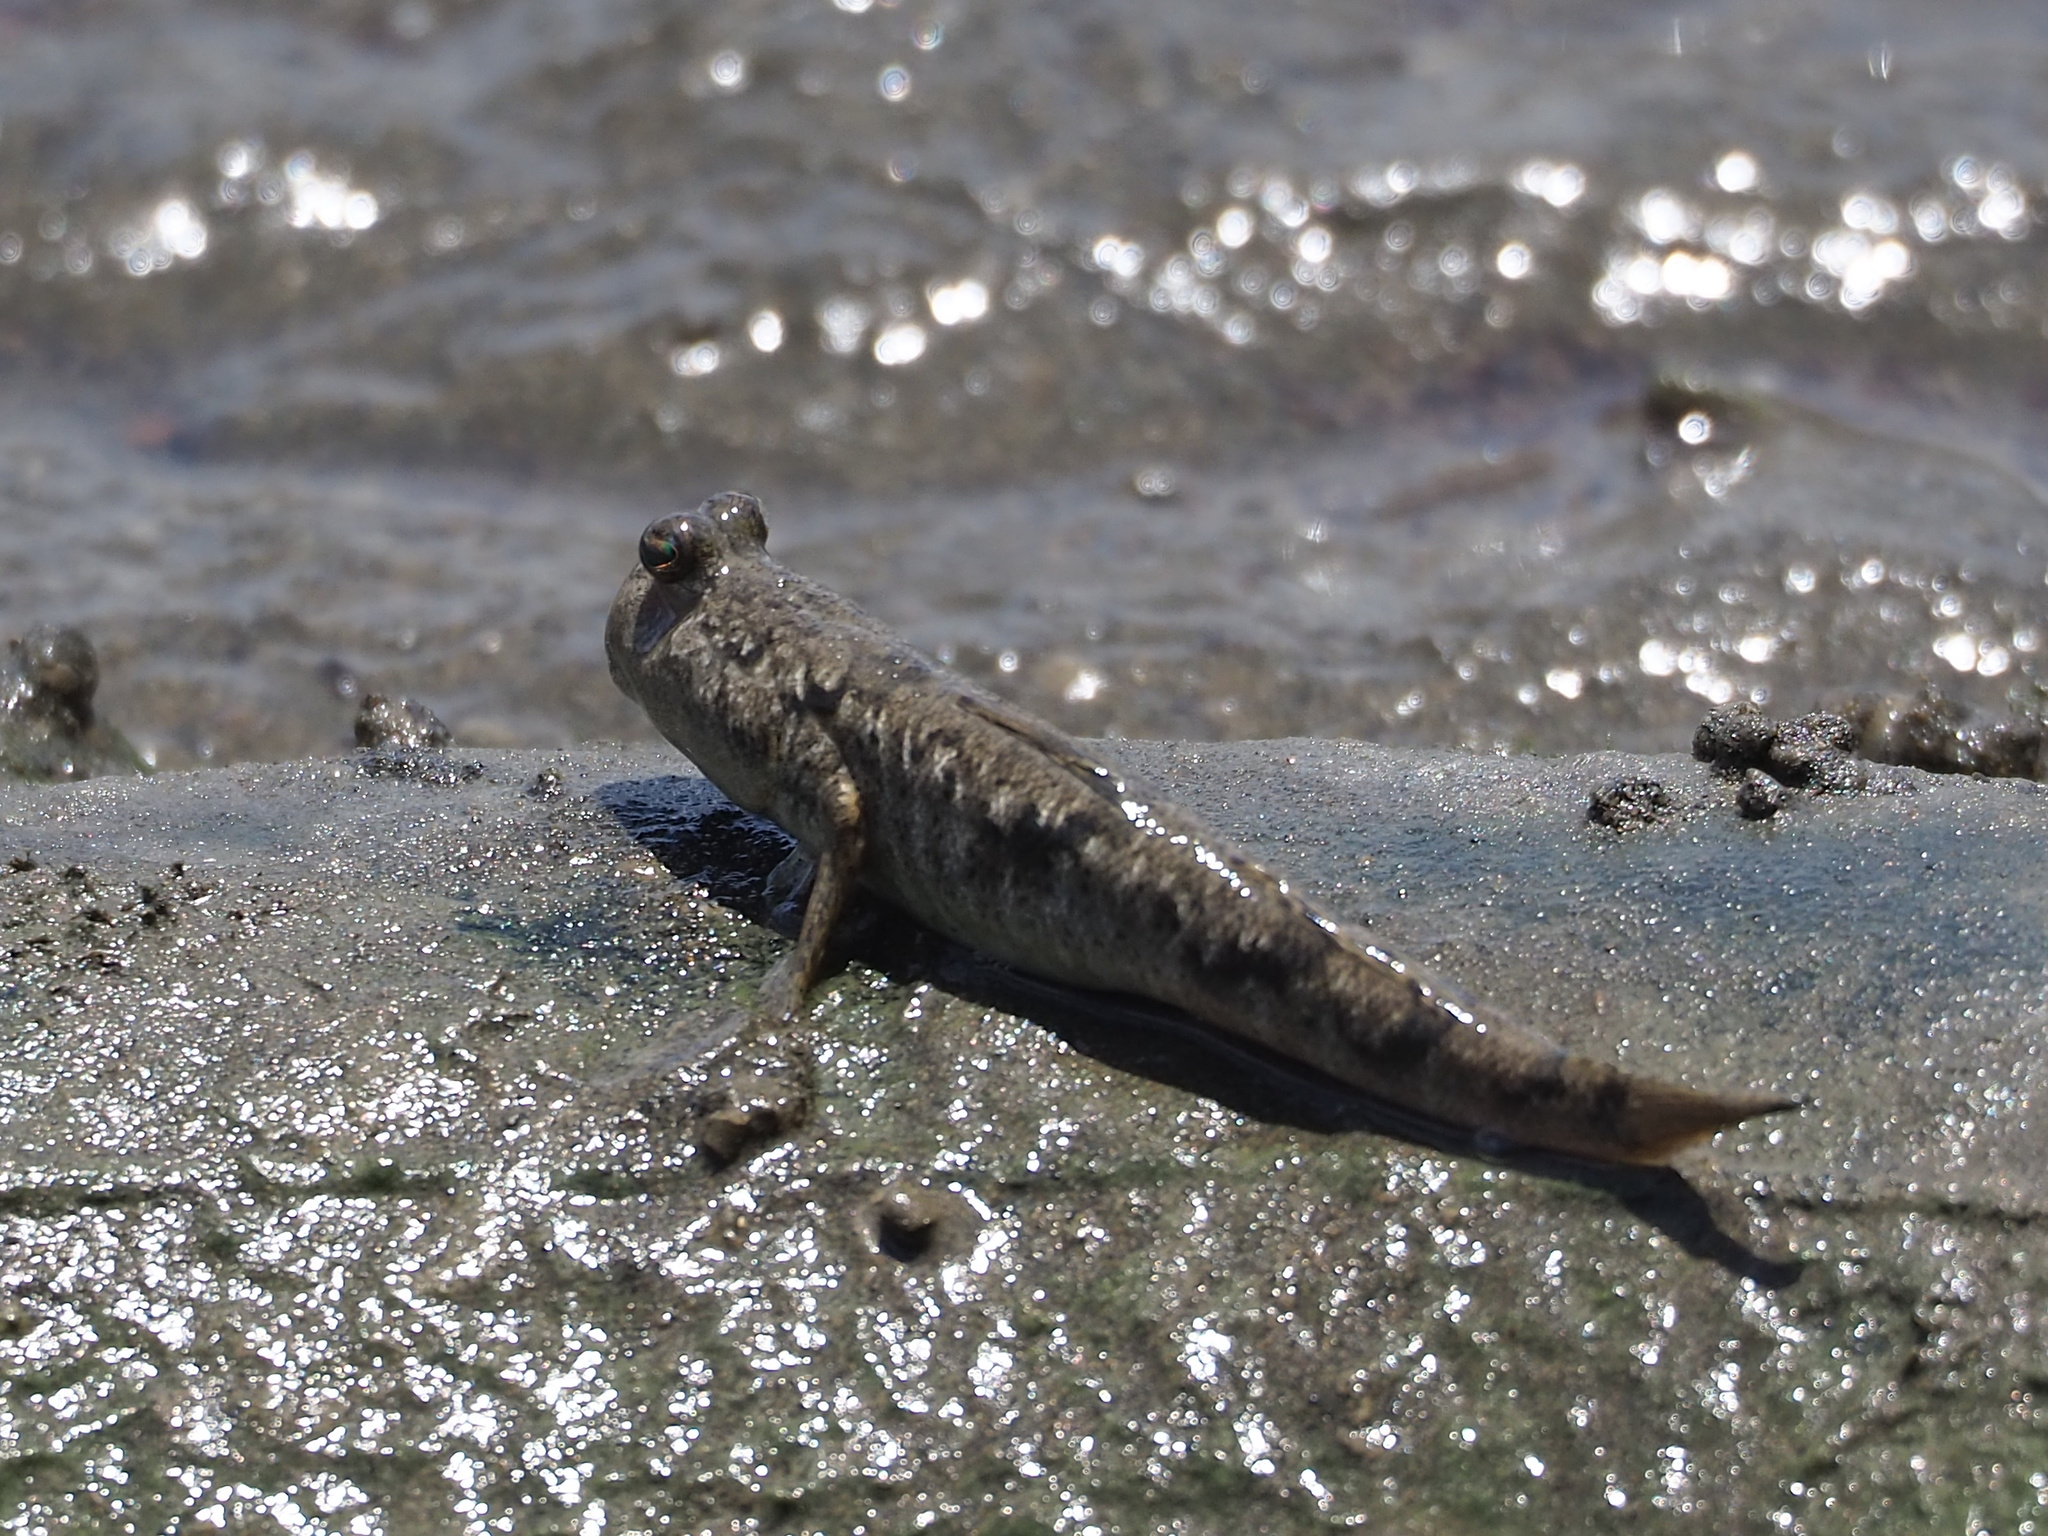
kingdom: Animalia
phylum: Chordata
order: Perciformes
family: Gobiidae
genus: Periophthalmus
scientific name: Periophthalmus modestus
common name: Black goby
